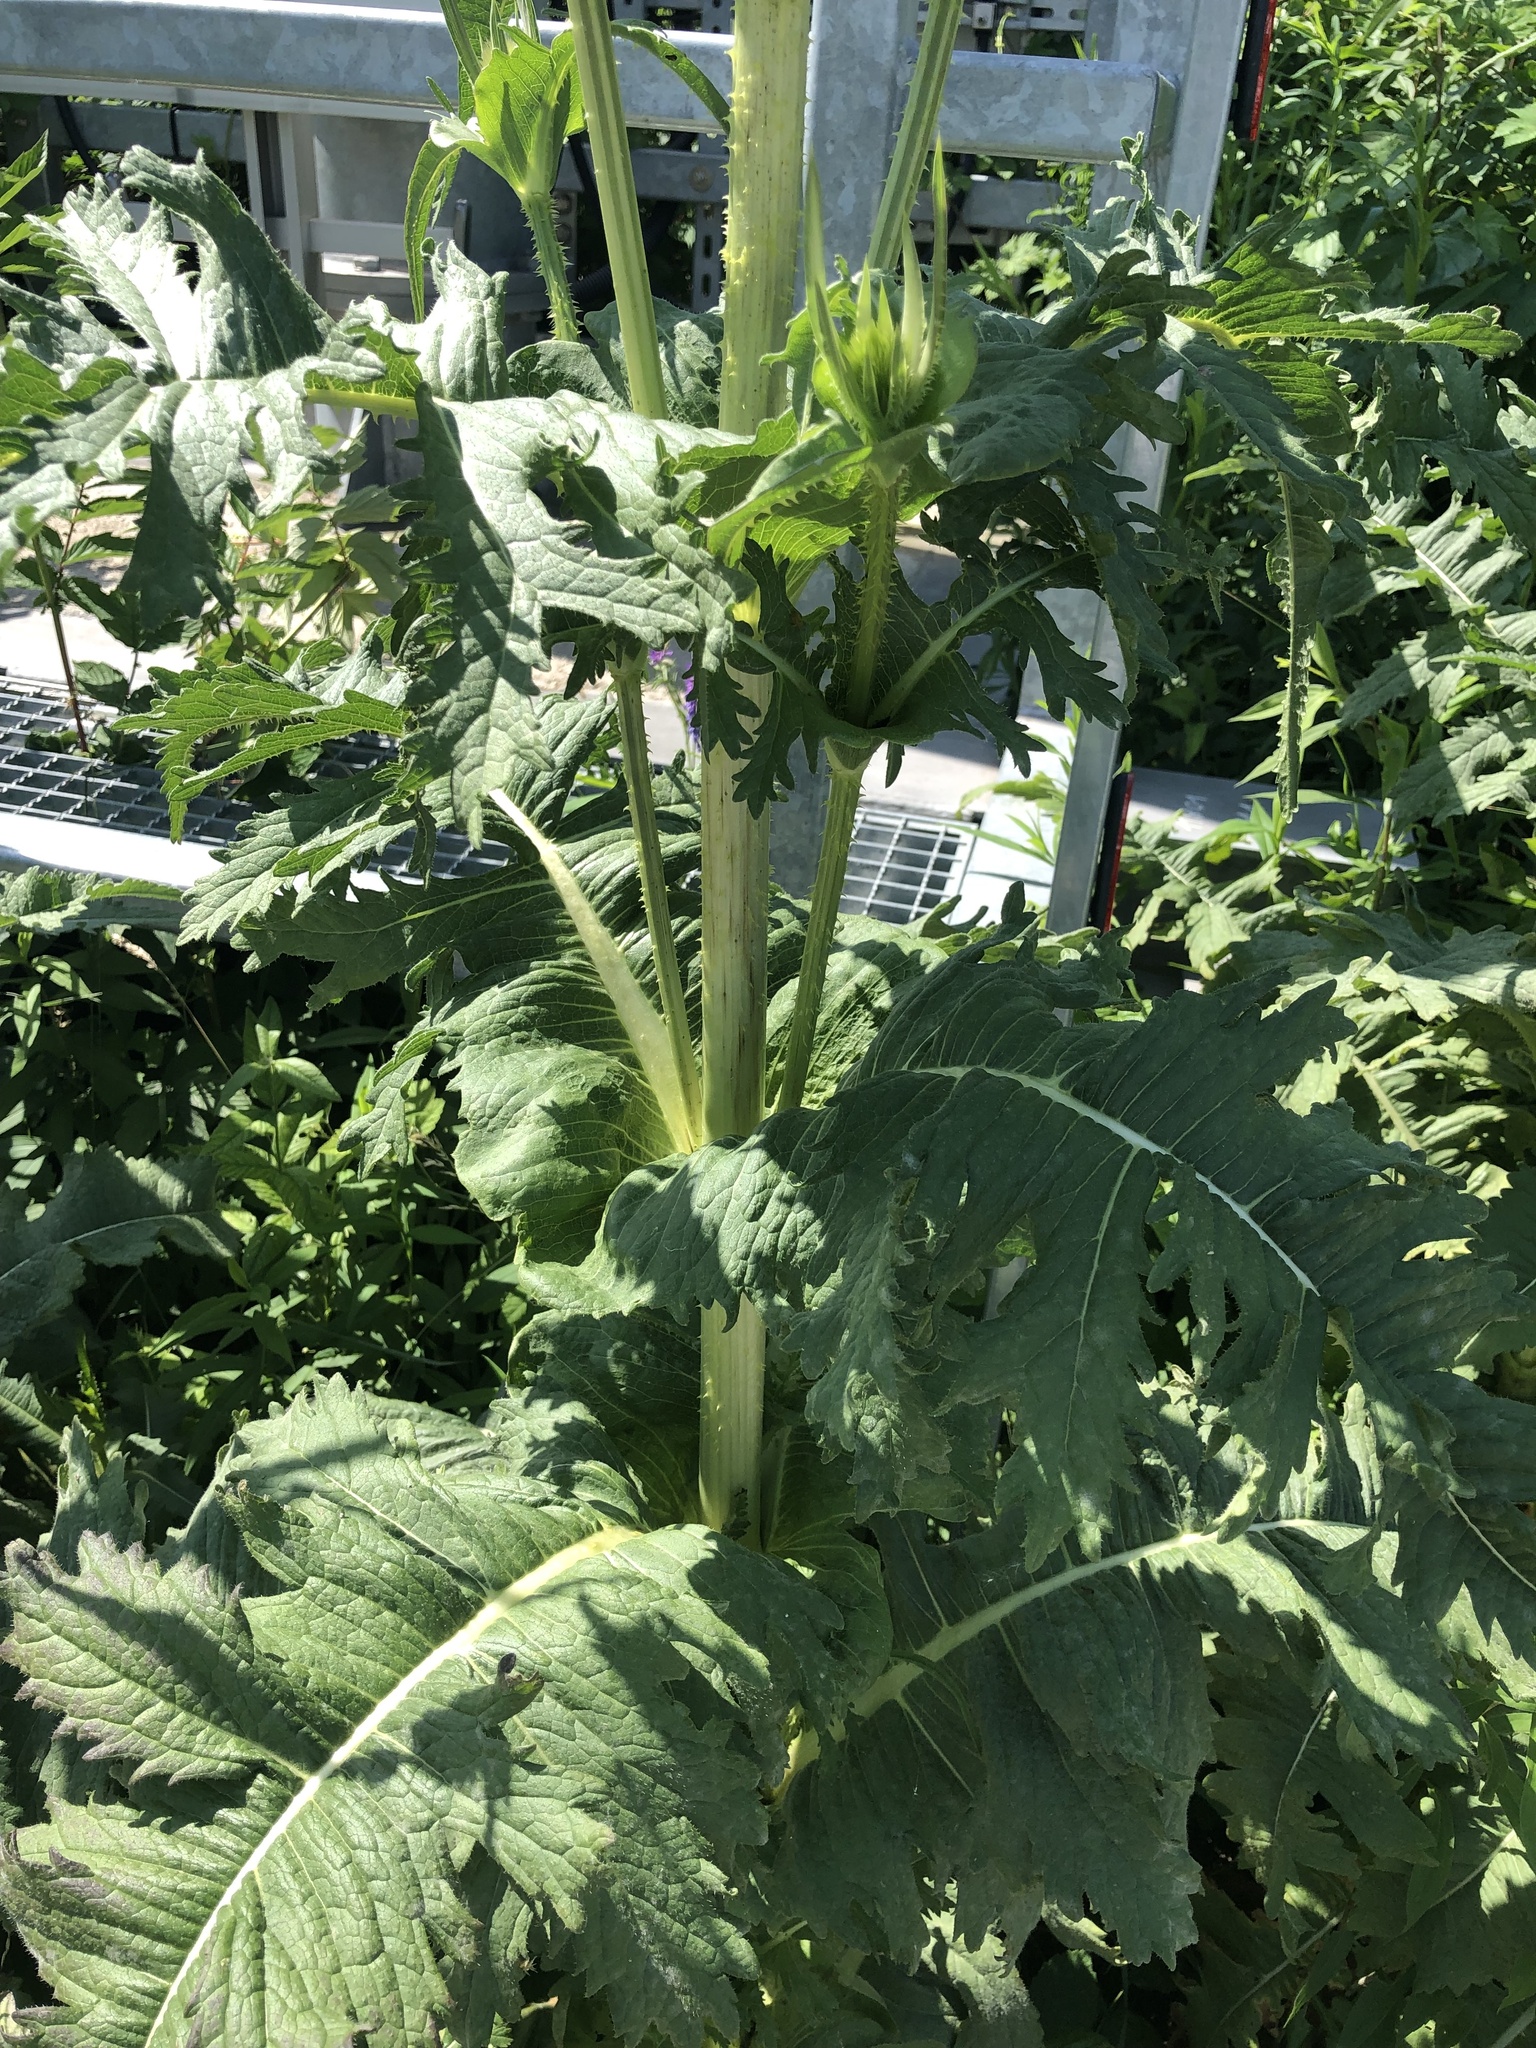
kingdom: Plantae
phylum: Tracheophyta
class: Magnoliopsida
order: Dipsacales
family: Caprifoliaceae
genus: Dipsacus
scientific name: Dipsacus laciniatus
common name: Cut-leaved teasel
